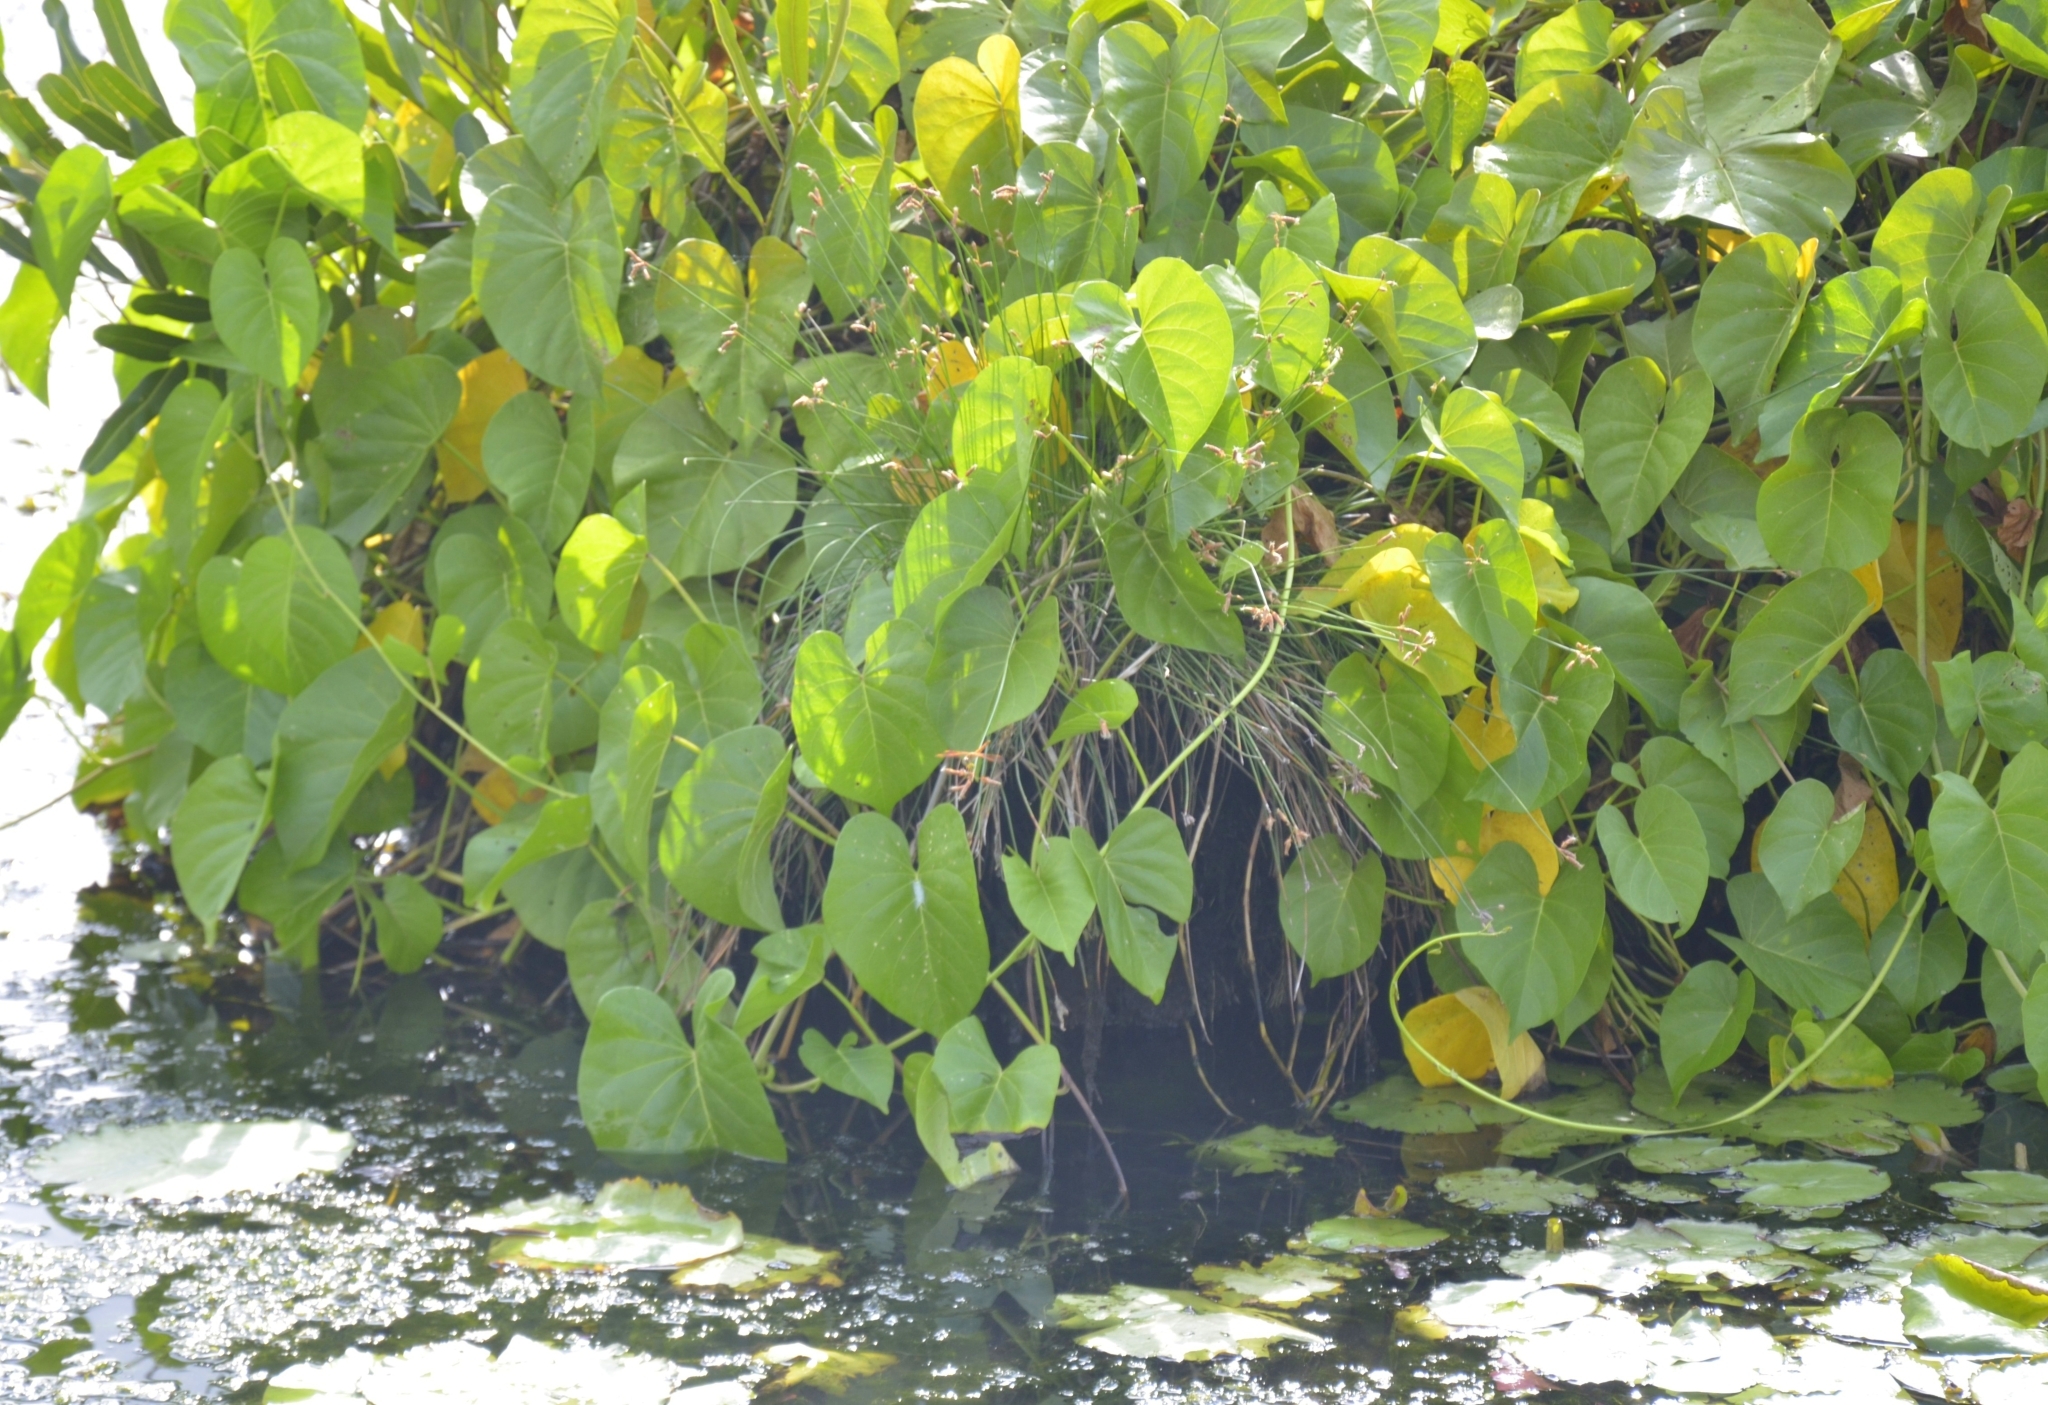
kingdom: Plantae
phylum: Tracheophyta
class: Magnoliopsida
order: Solanales
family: Convolvulaceae
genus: Ipomoea
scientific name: Ipomoea violacea
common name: Beach moonflower
